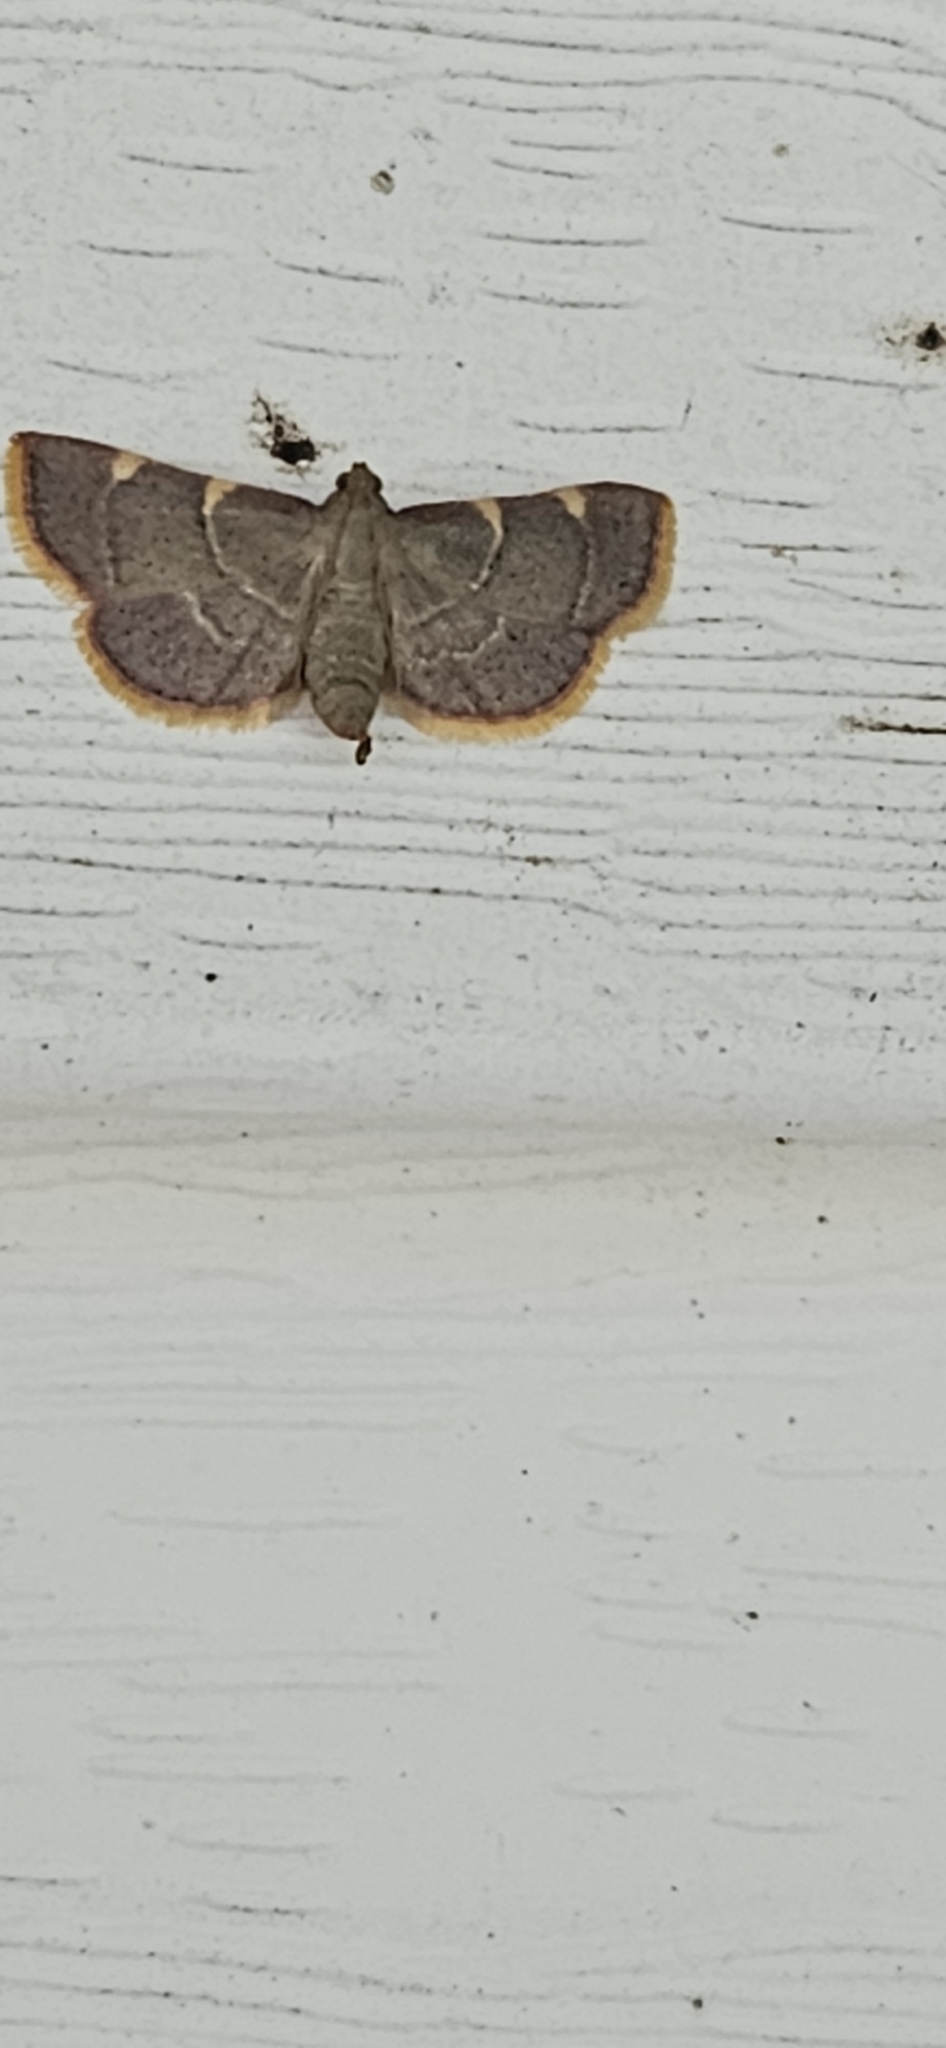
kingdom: Animalia
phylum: Arthropoda
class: Insecta
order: Lepidoptera
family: Pyralidae
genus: Hypsopygia
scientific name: Hypsopygia olinalis
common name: Yellow-fringed dolichomia moth
